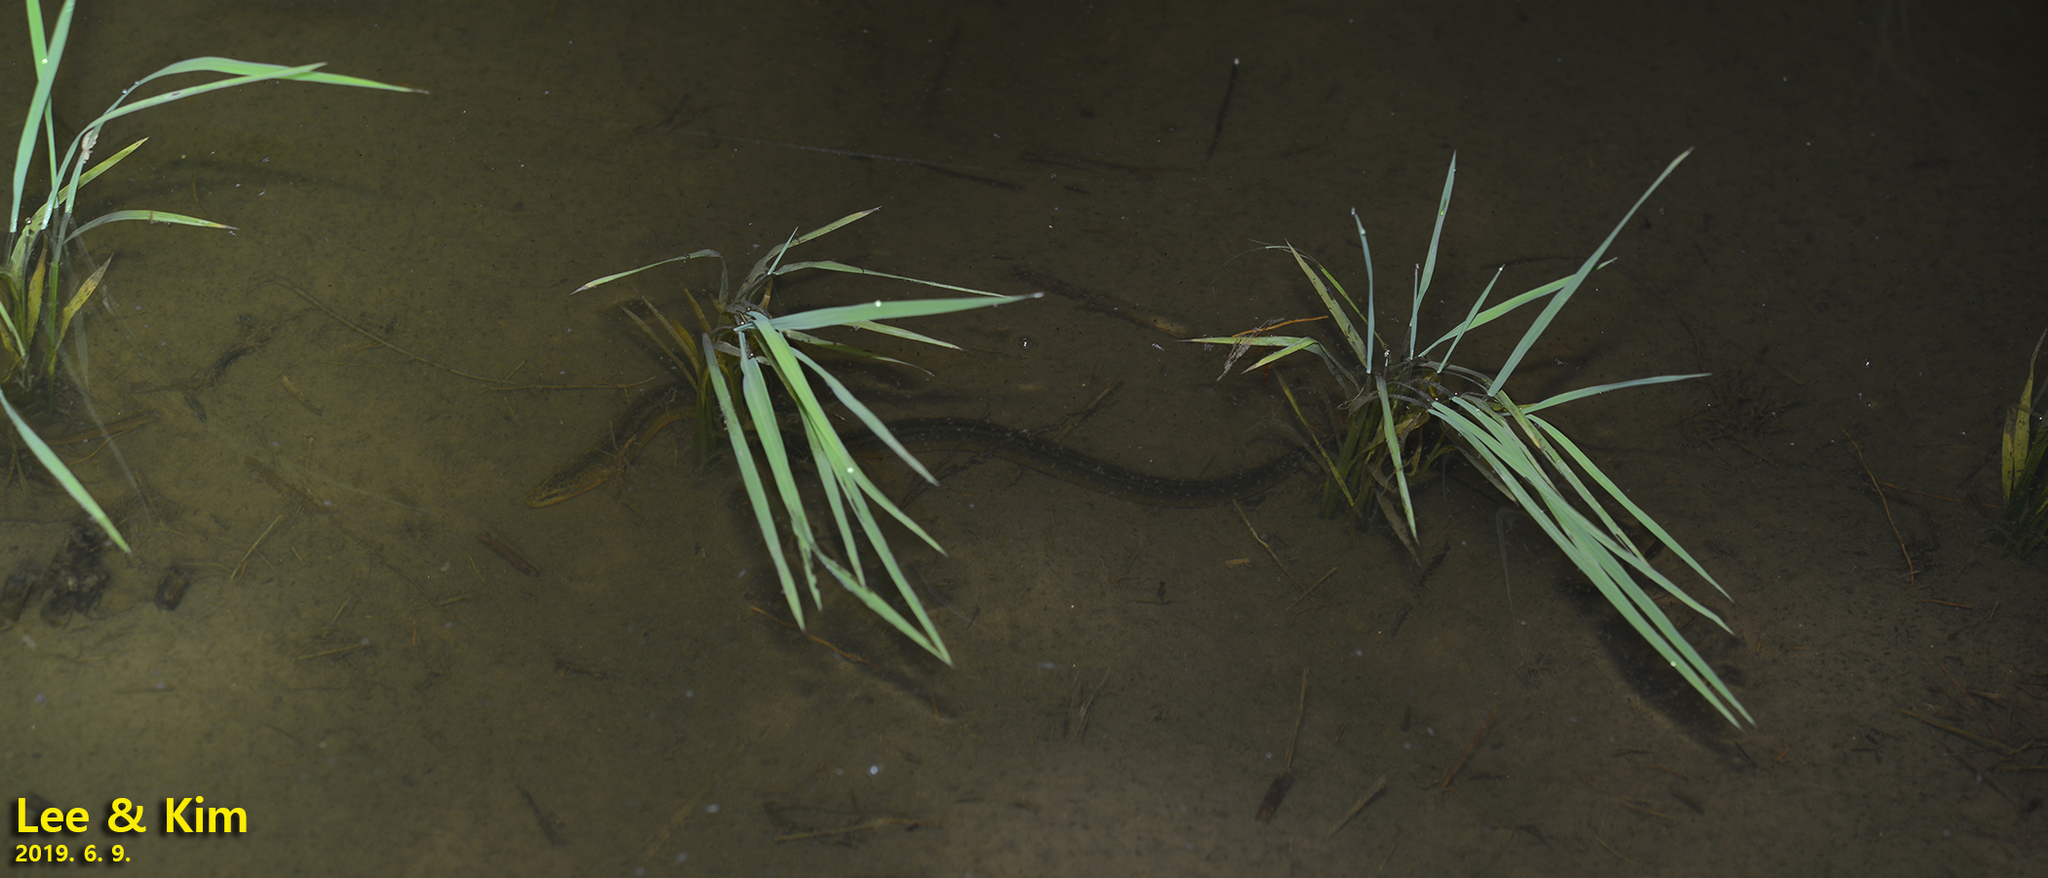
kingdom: Animalia
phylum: Chordata
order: Synbranchiformes
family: Synbranchidae
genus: Monopterus
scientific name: Monopterus albus
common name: Asian swamp eel
